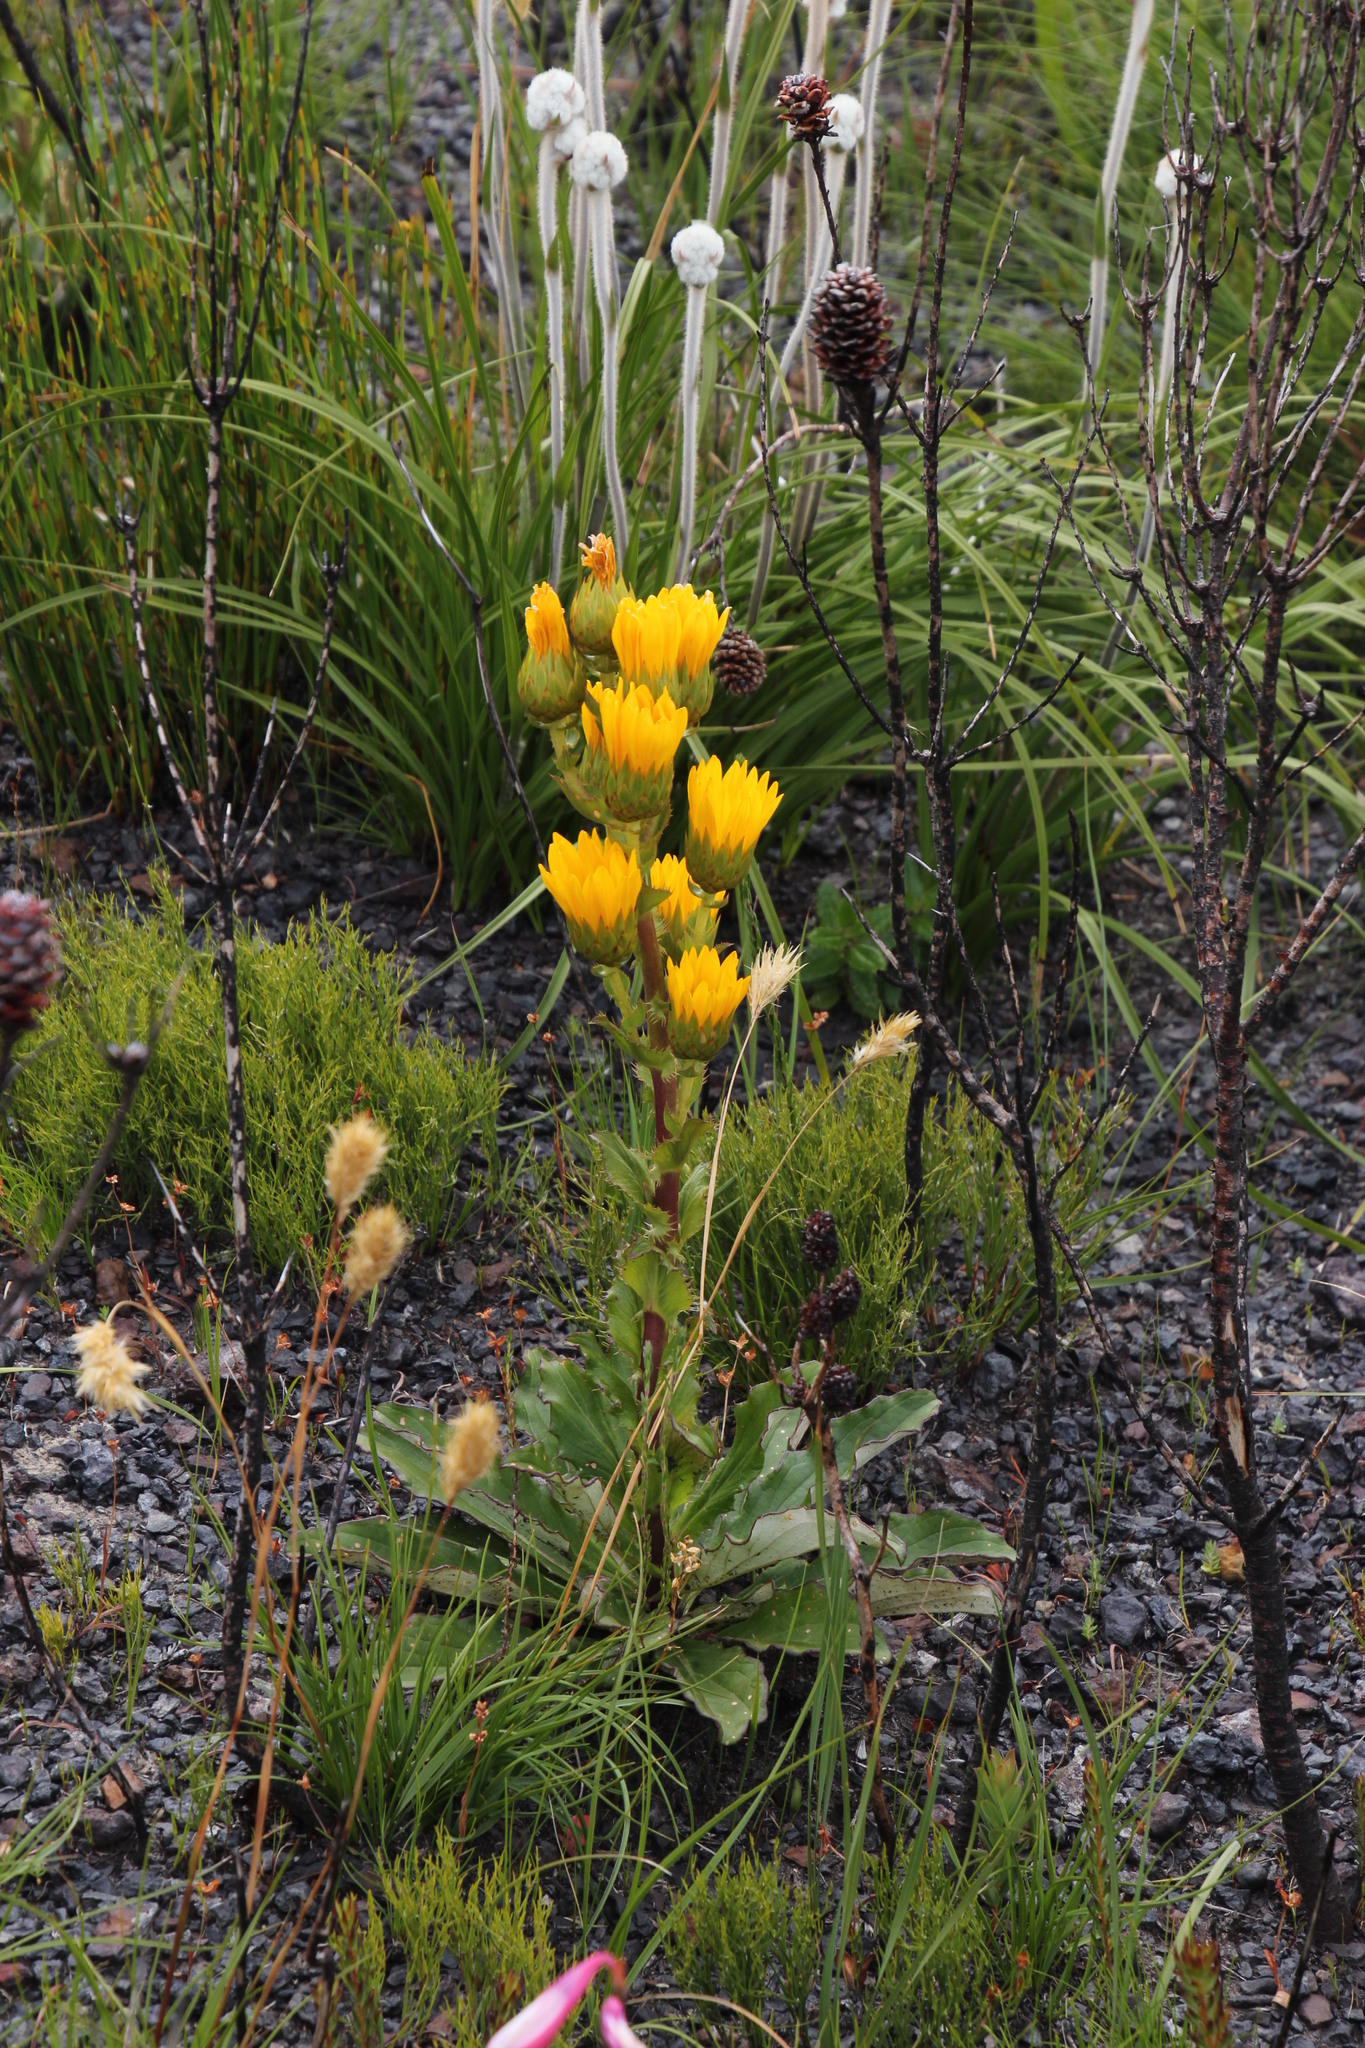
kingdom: Plantae
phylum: Tracheophyta
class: Magnoliopsida
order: Asterales
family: Asteraceae
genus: Berkheya
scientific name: Berkheya herbacea
